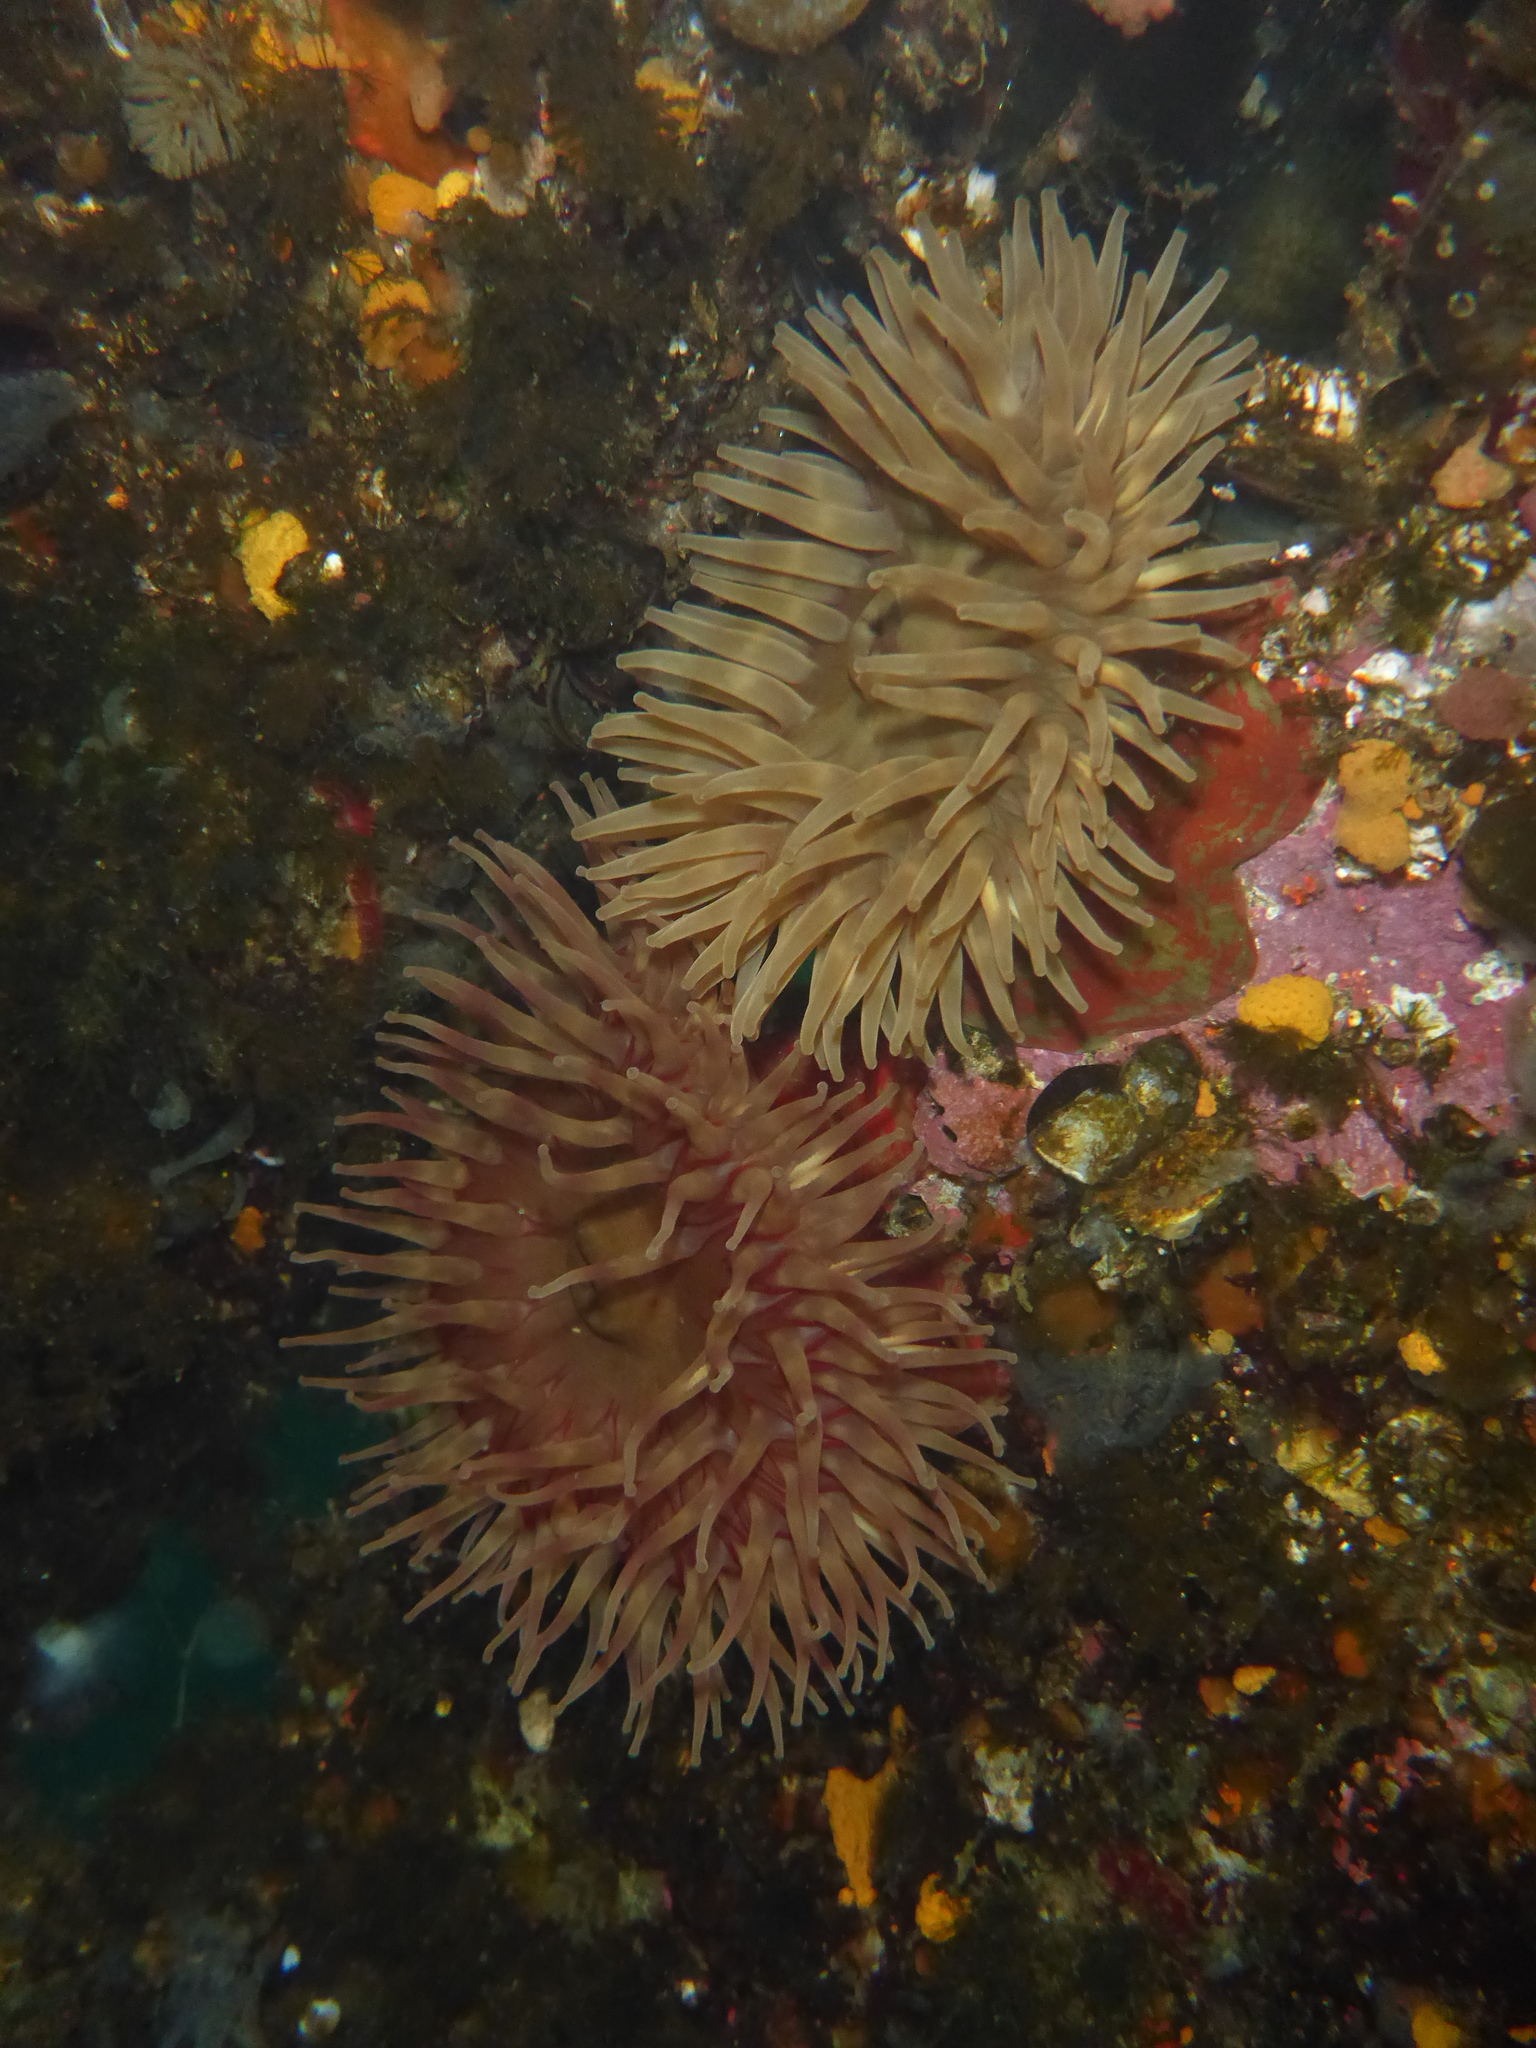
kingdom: Animalia
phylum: Cnidaria
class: Anthozoa
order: Actiniaria
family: Actiniidae
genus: Urticina
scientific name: Urticina grebelnyi
